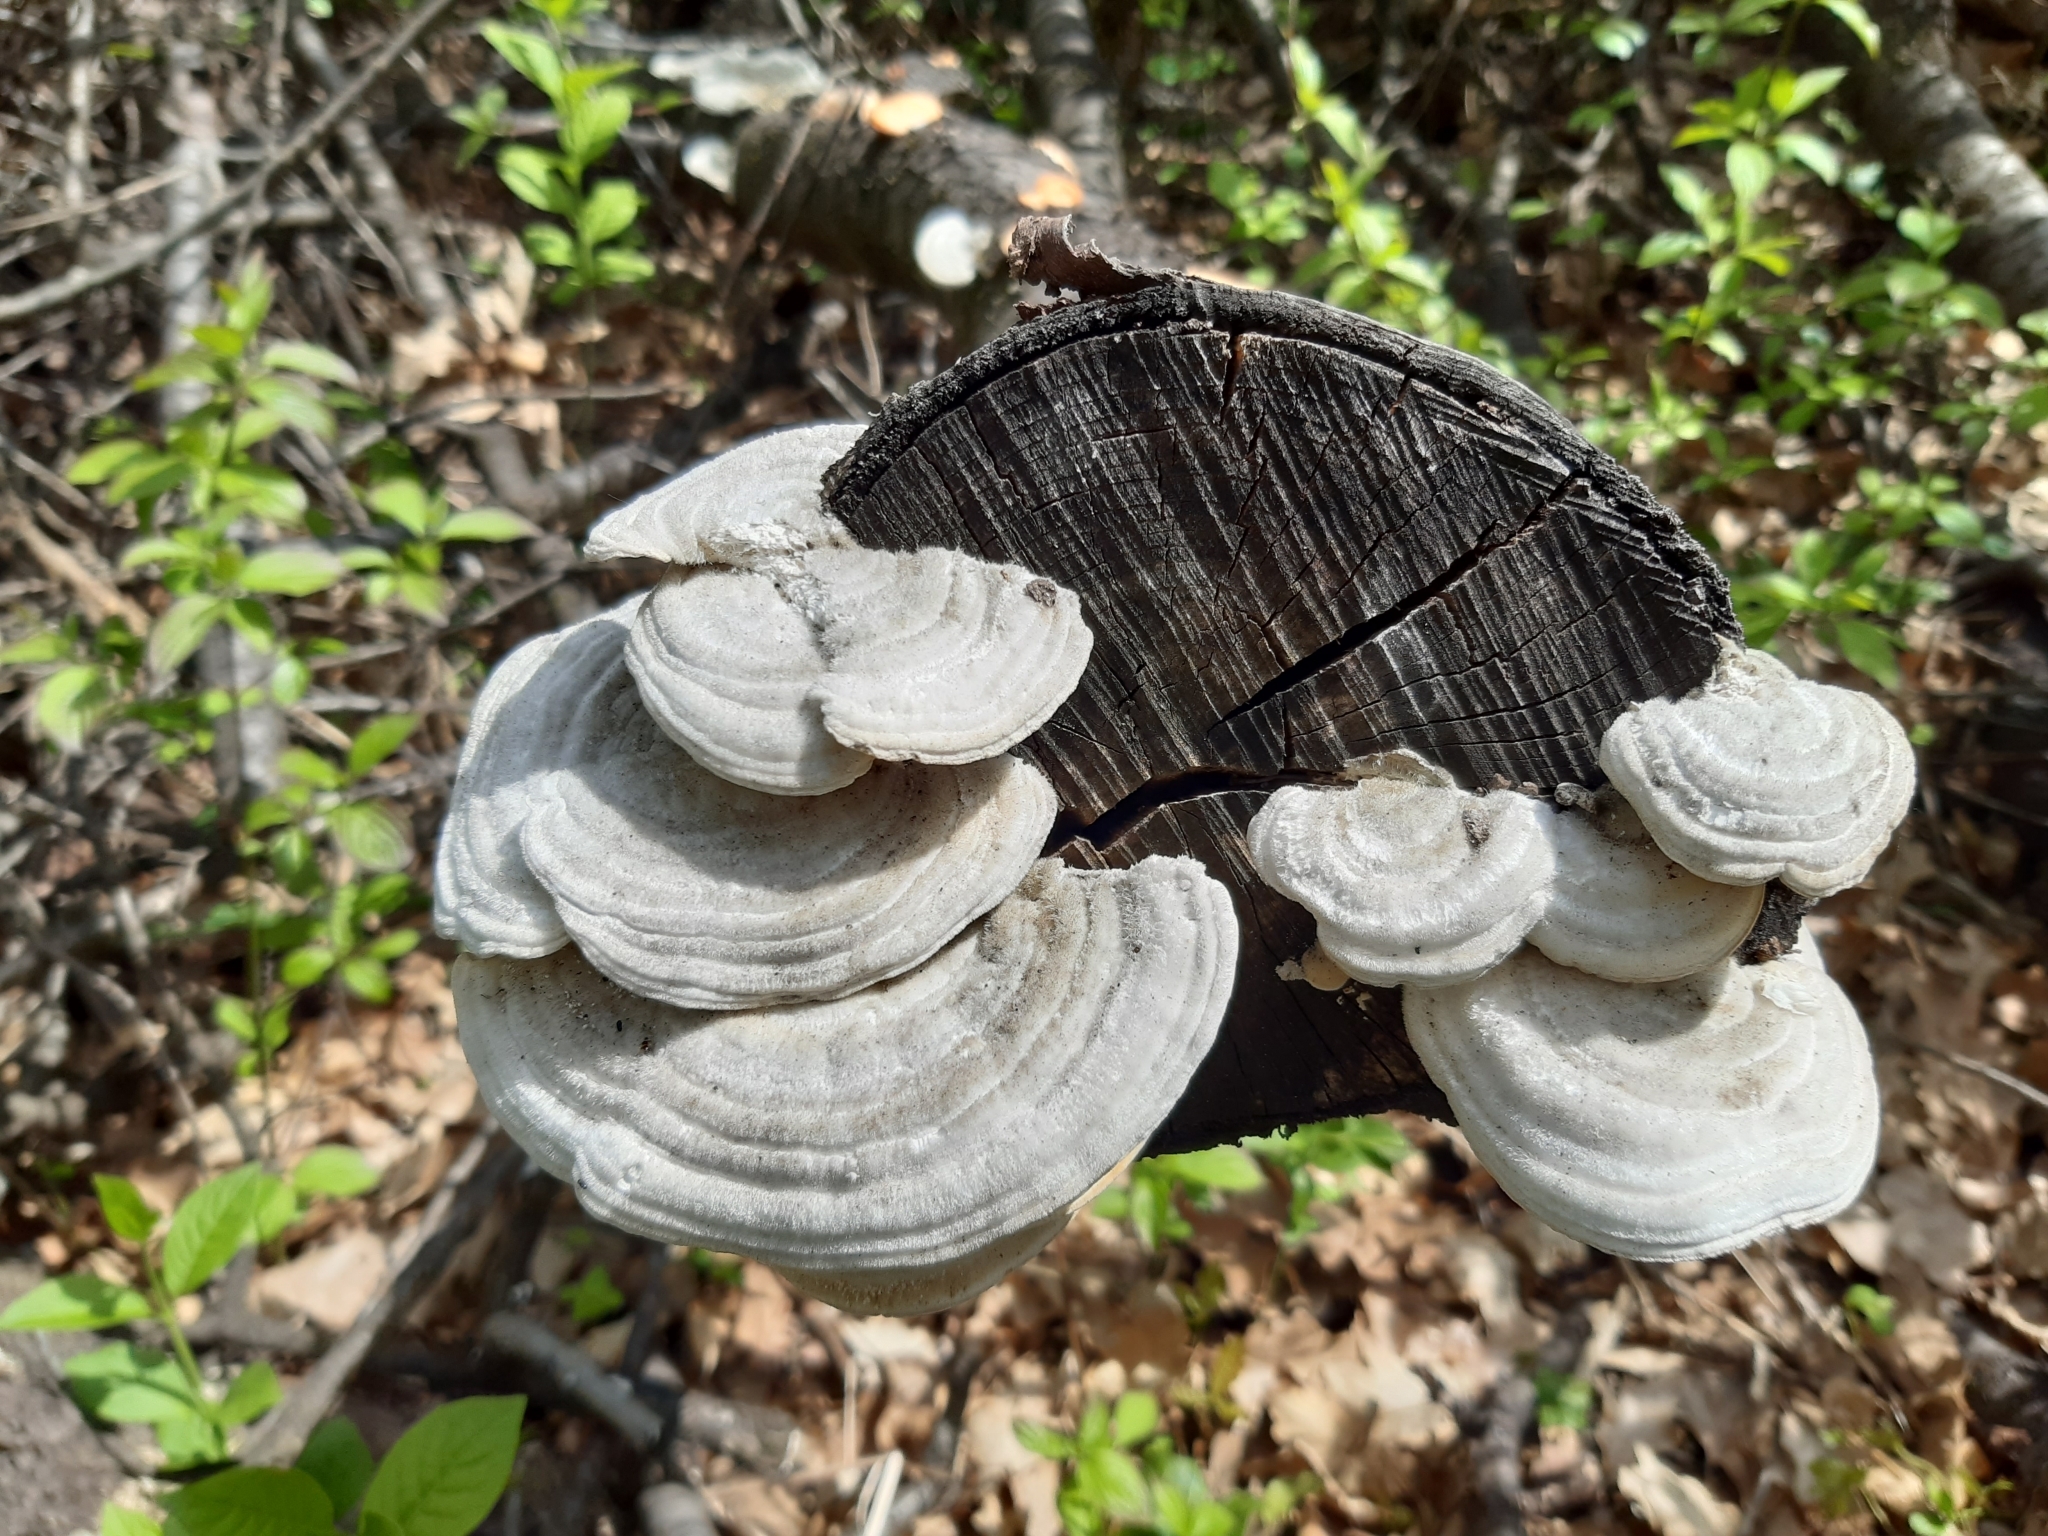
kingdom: Fungi
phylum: Basidiomycota
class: Agaricomycetes
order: Polyporales
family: Polyporaceae
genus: Trametes
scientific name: Trametes hirsuta
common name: Hairy bracket
